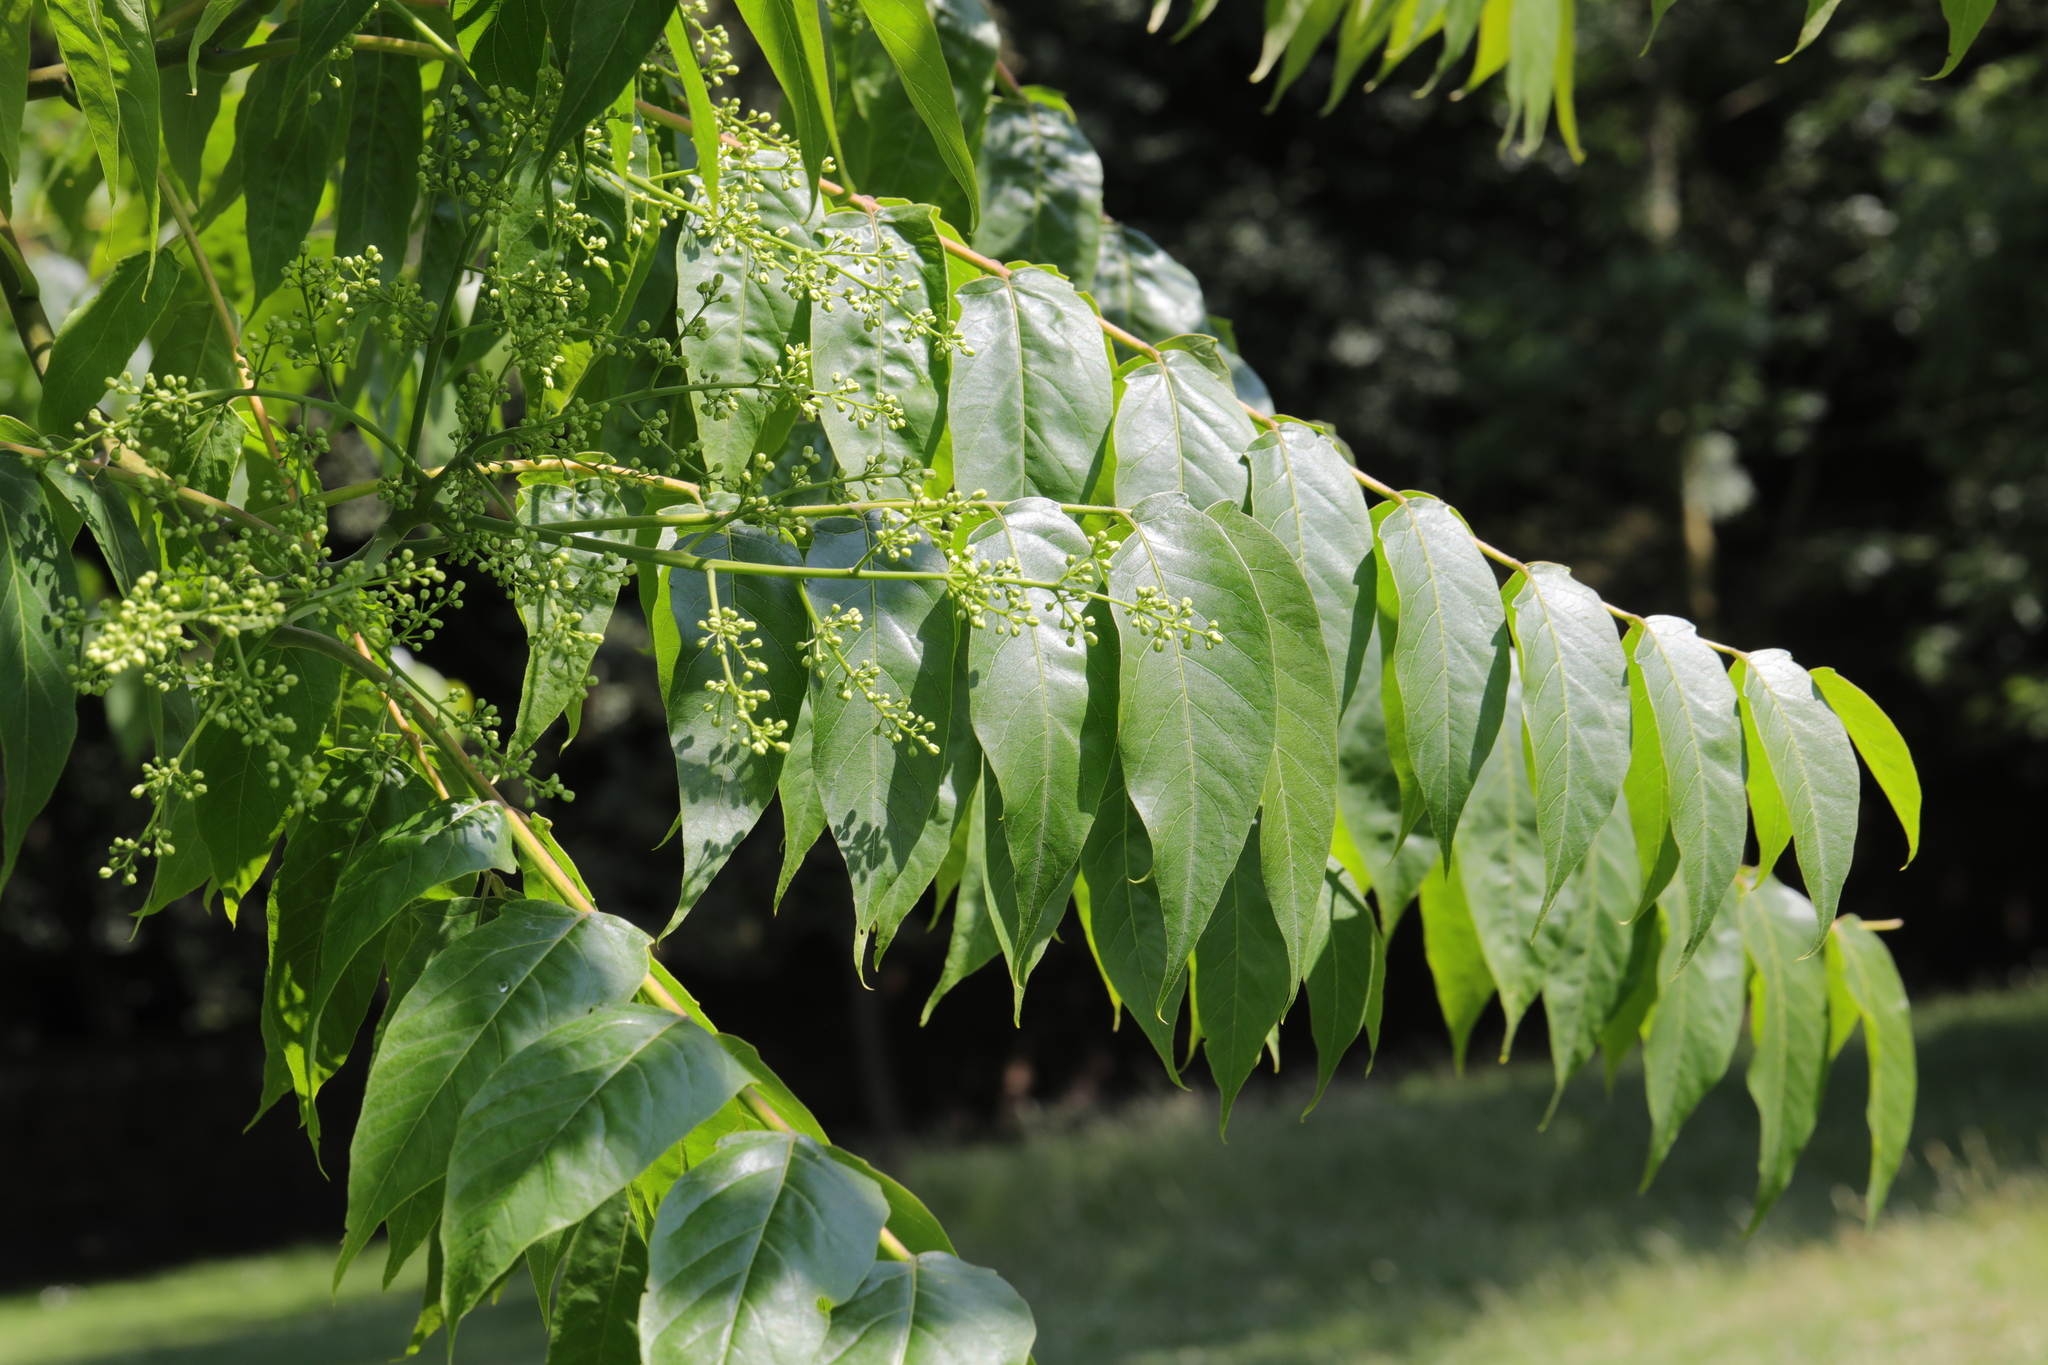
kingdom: Plantae
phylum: Tracheophyta
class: Magnoliopsida
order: Lamiales
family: Oleaceae
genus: Fraxinus
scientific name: Fraxinus ornus
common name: Manna ash
